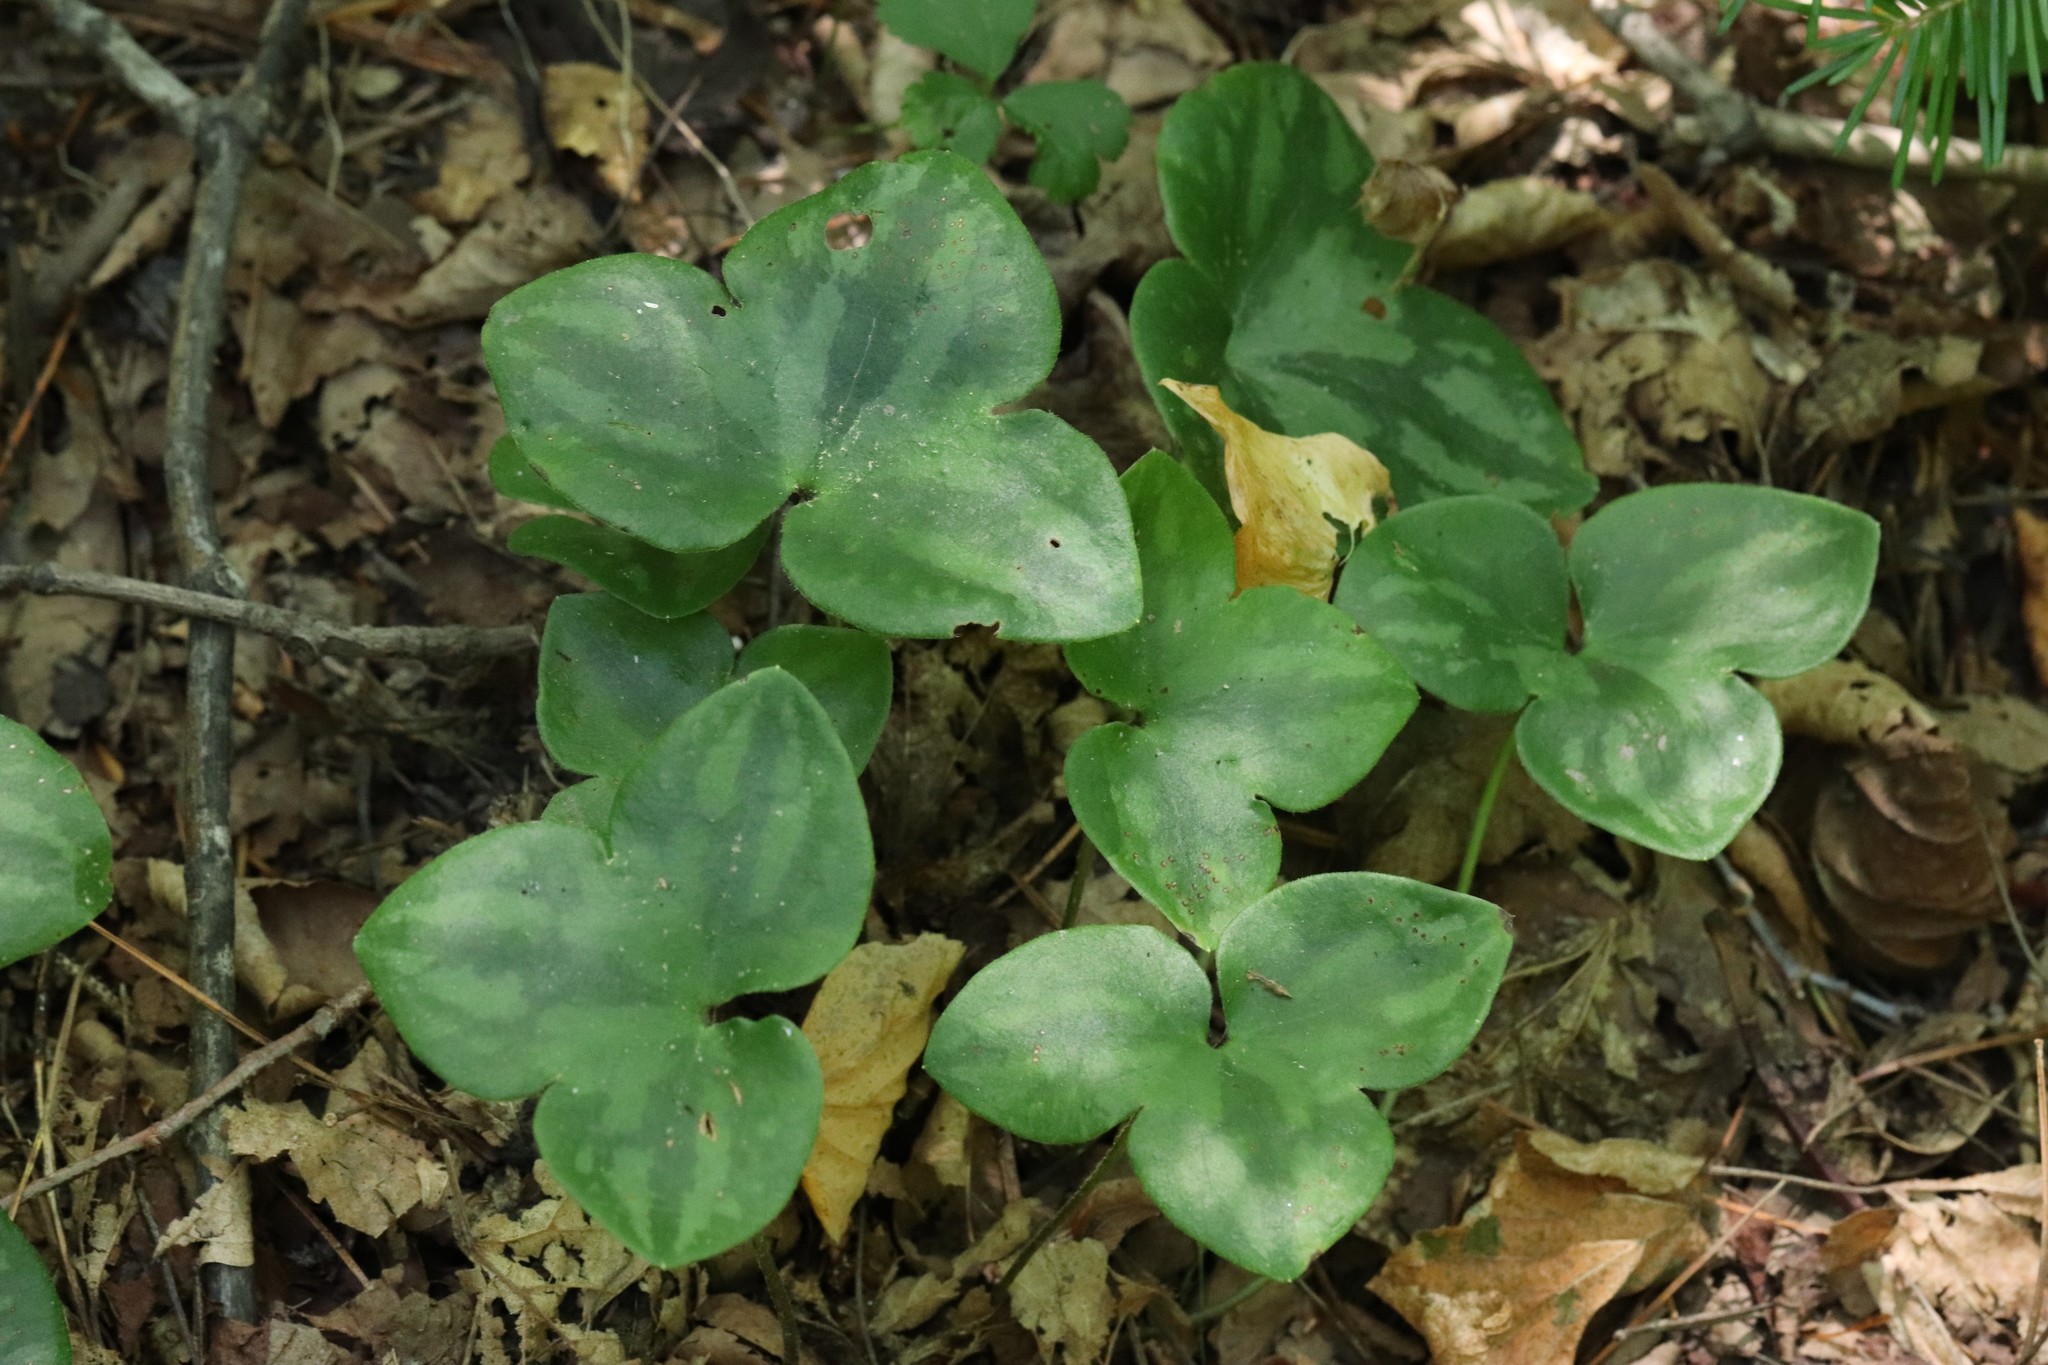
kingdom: Plantae
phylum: Tracheophyta
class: Magnoliopsida
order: Ranunculales
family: Ranunculaceae
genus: Hepatica
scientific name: Hepatica asiatica
